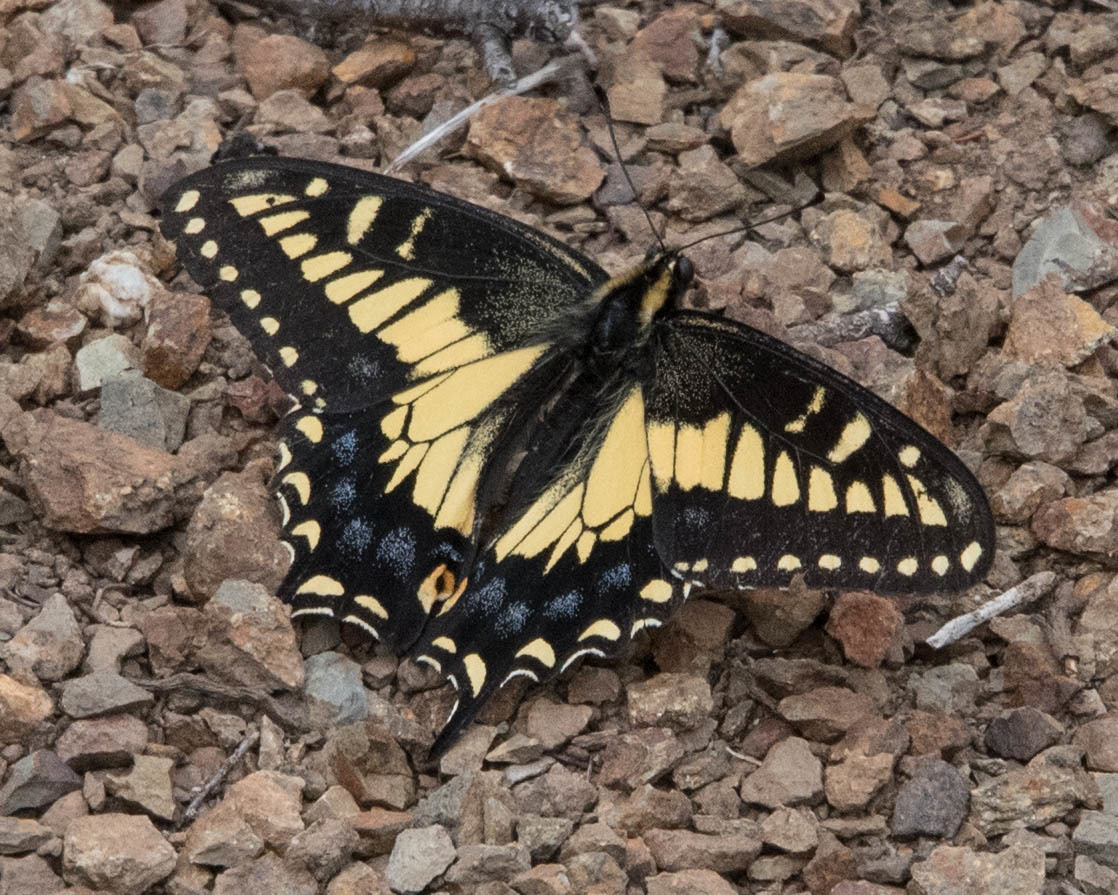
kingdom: Animalia
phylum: Arthropoda
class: Insecta
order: Lepidoptera
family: Papilionidae
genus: Papilio
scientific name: Papilio zelicaon
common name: Anise swallowtail
